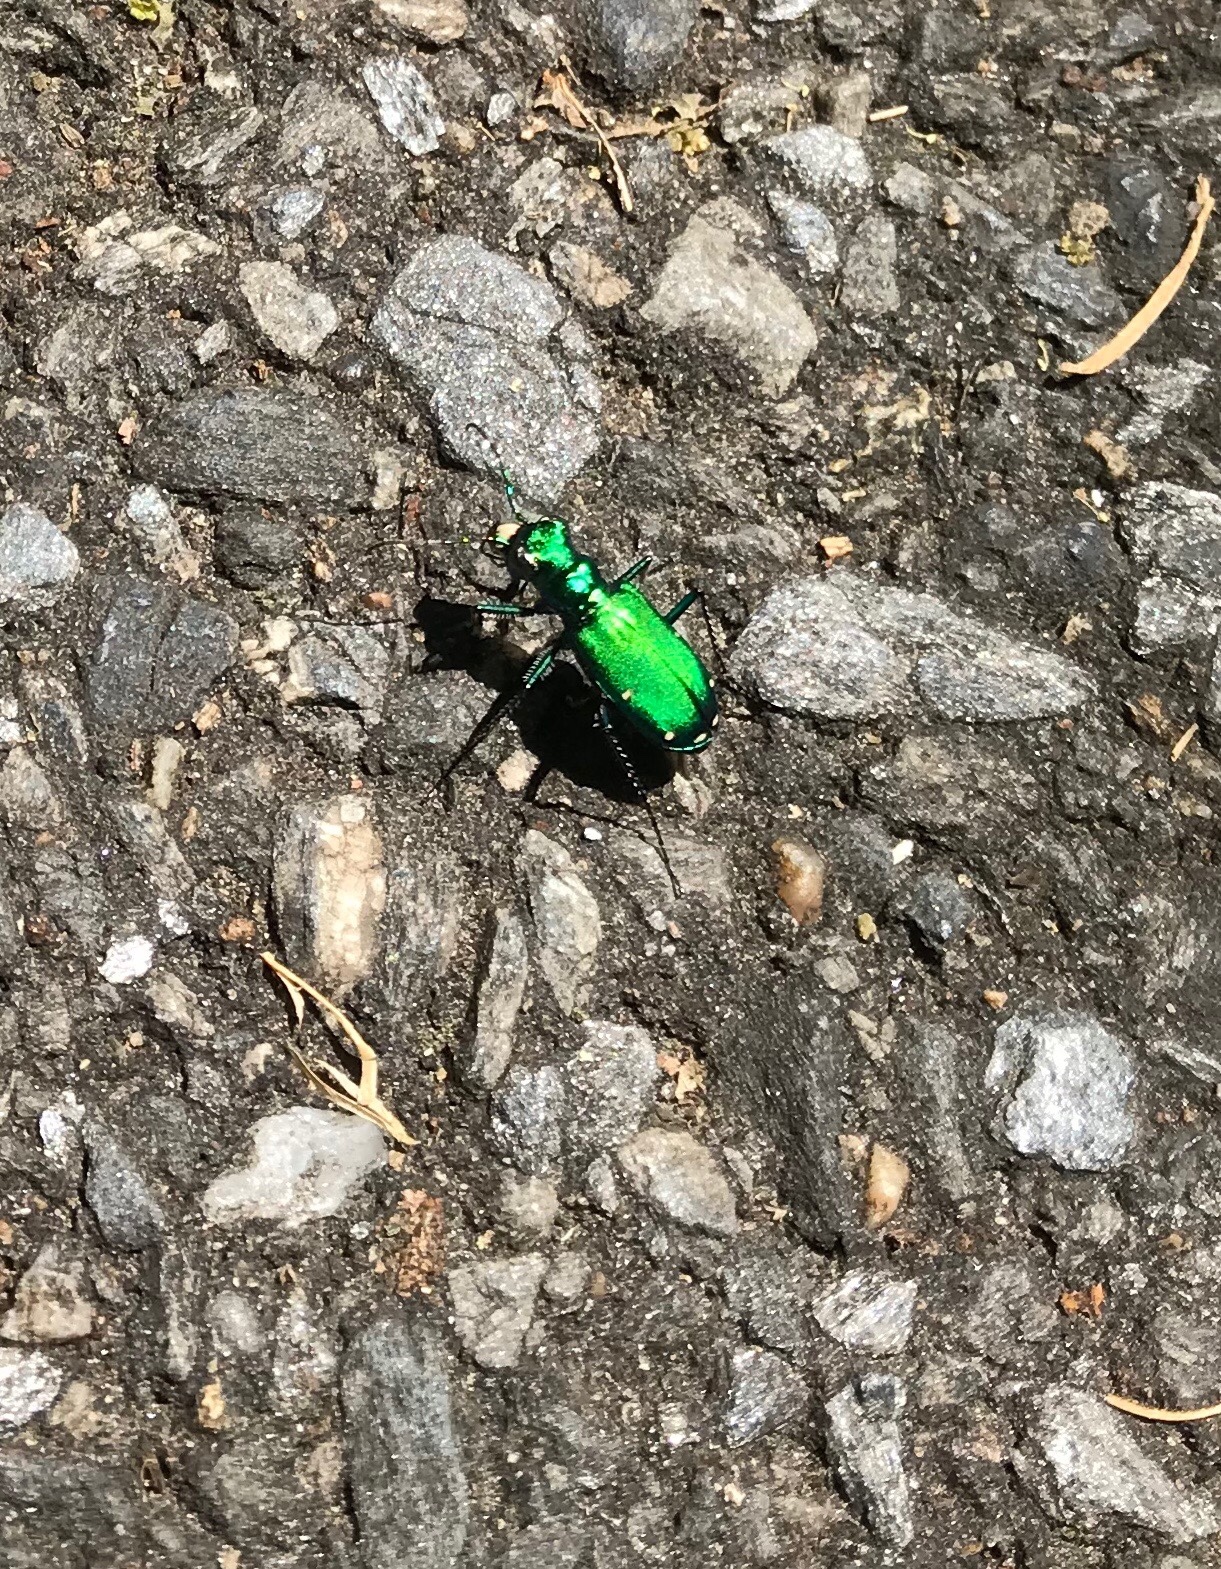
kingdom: Animalia
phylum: Arthropoda
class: Insecta
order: Coleoptera
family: Carabidae
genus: Cicindela
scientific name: Cicindela sexguttata
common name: Six-spotted tiger beetle
